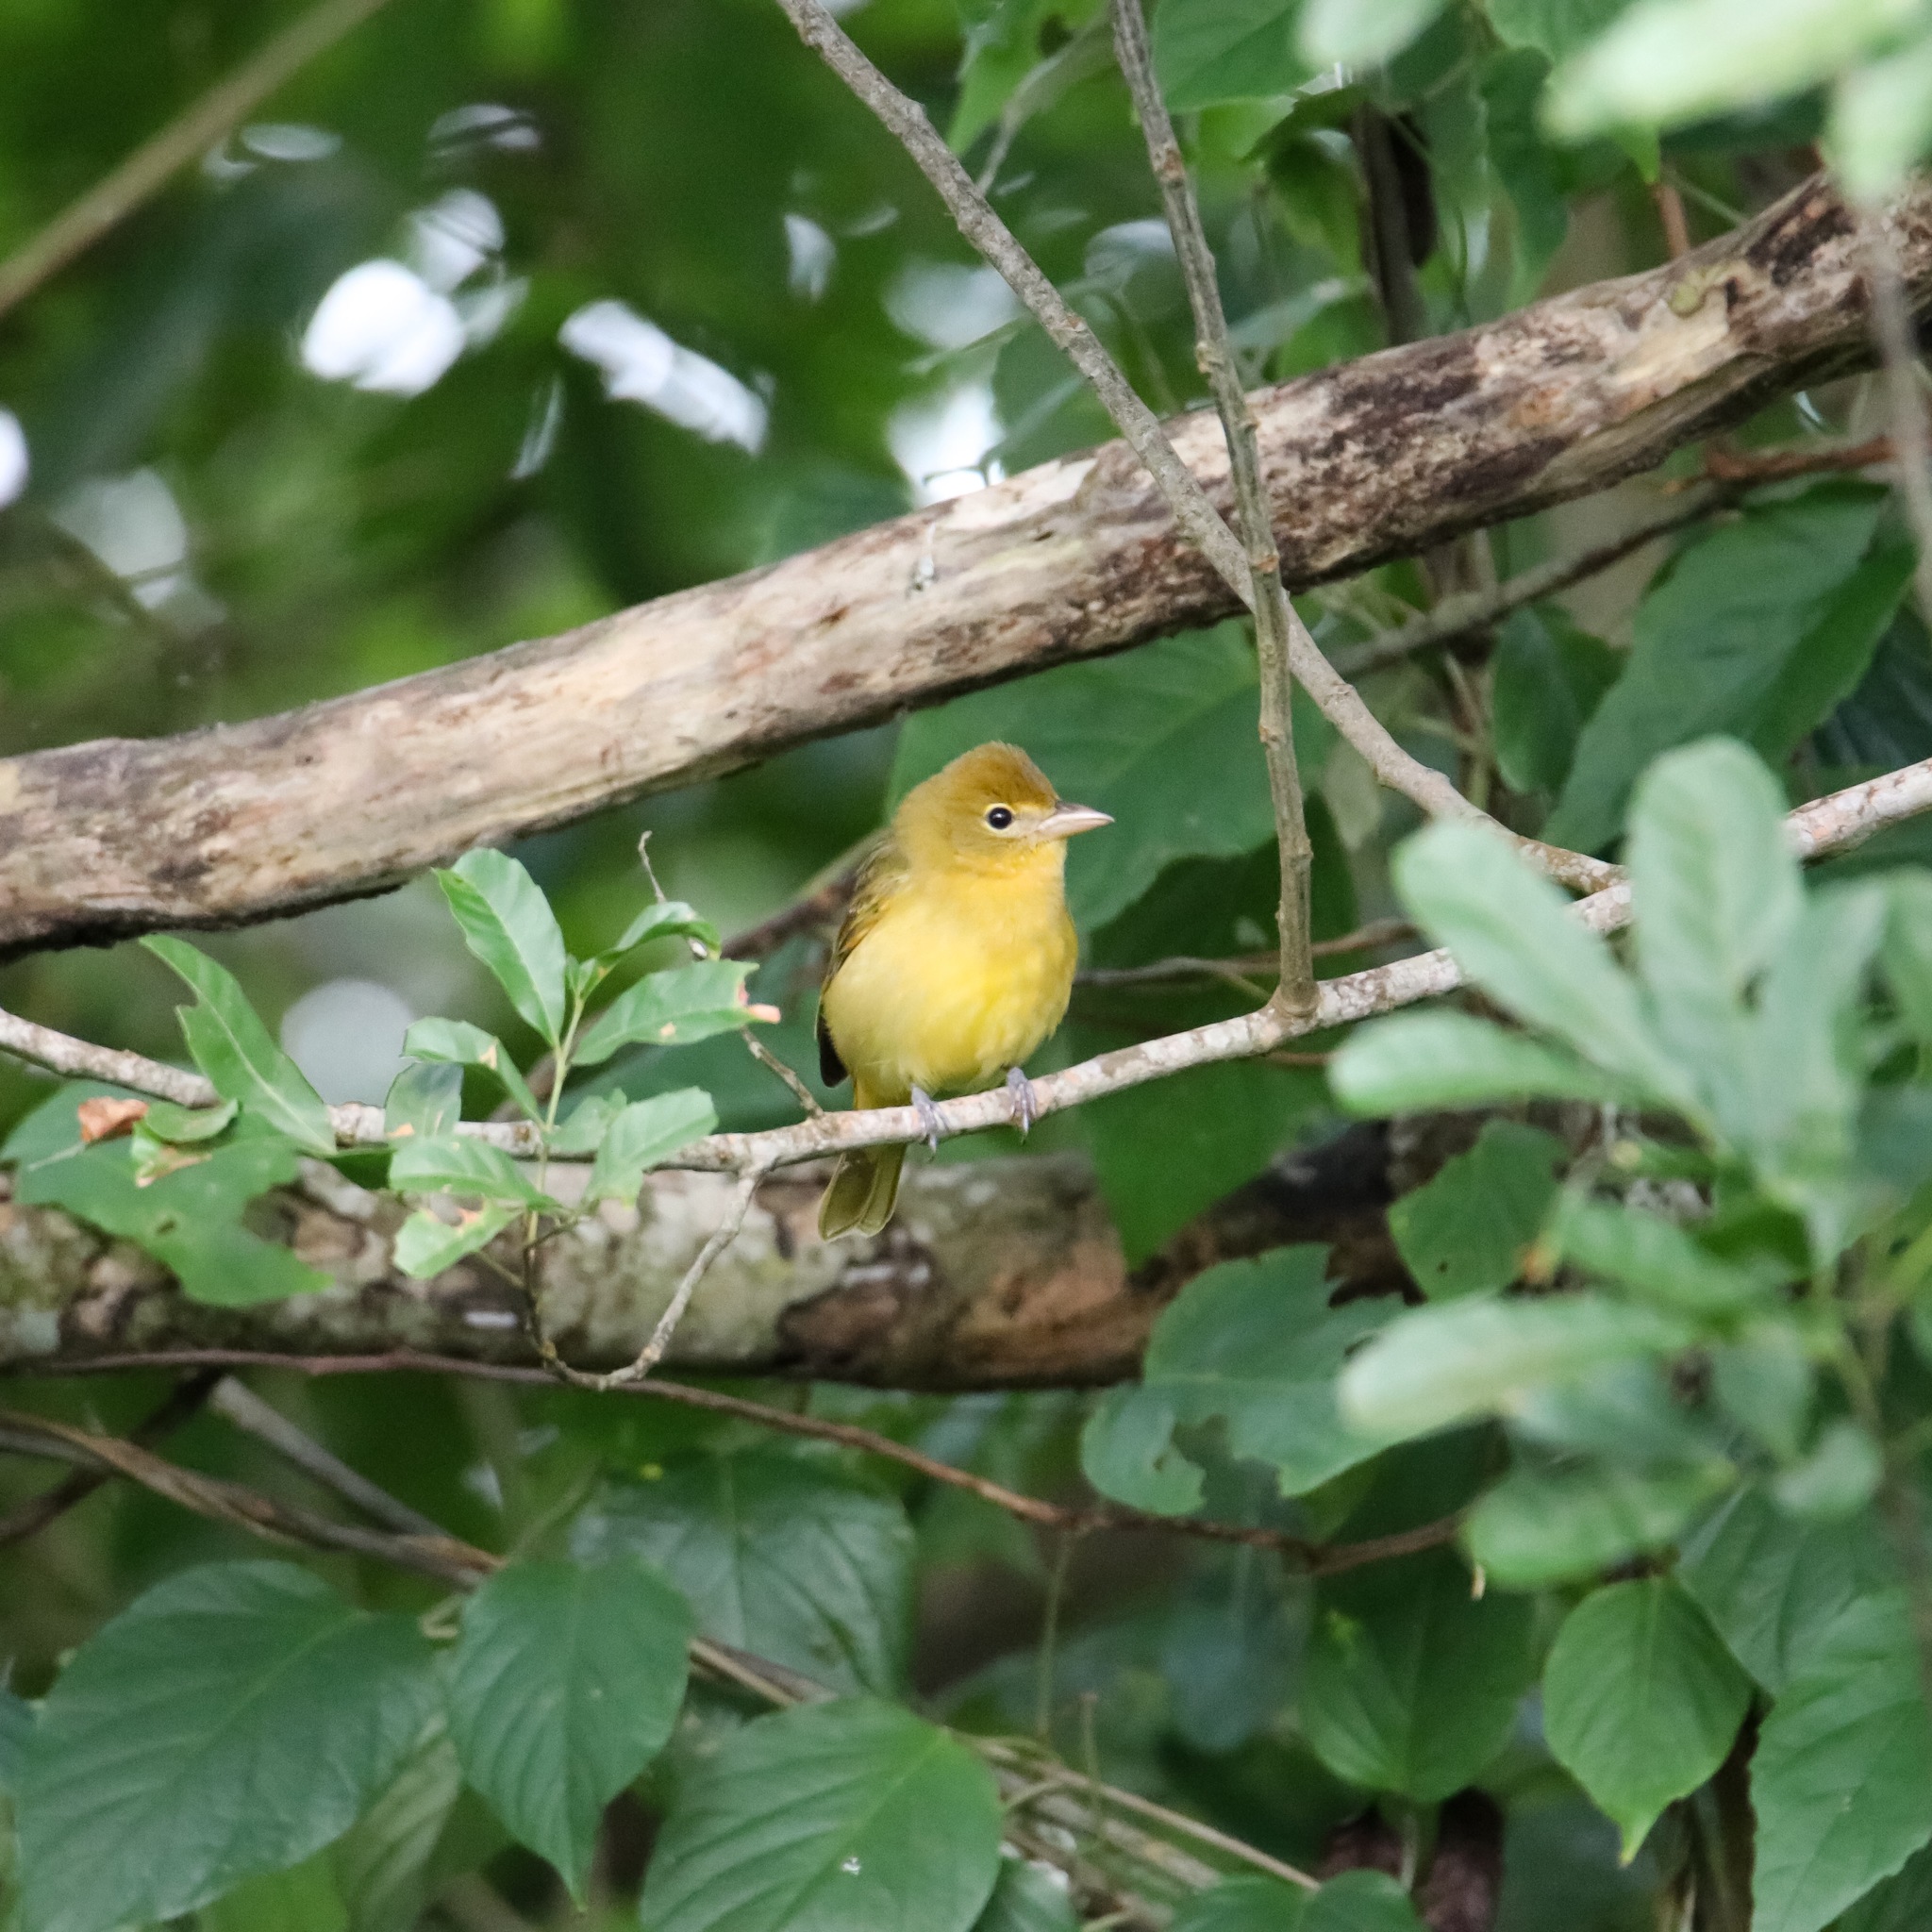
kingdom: Animalia
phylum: Chordata
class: Aves
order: Passeriformes
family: Cardinalidae
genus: Piranga
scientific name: Piranga rubra
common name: Summer tanager
